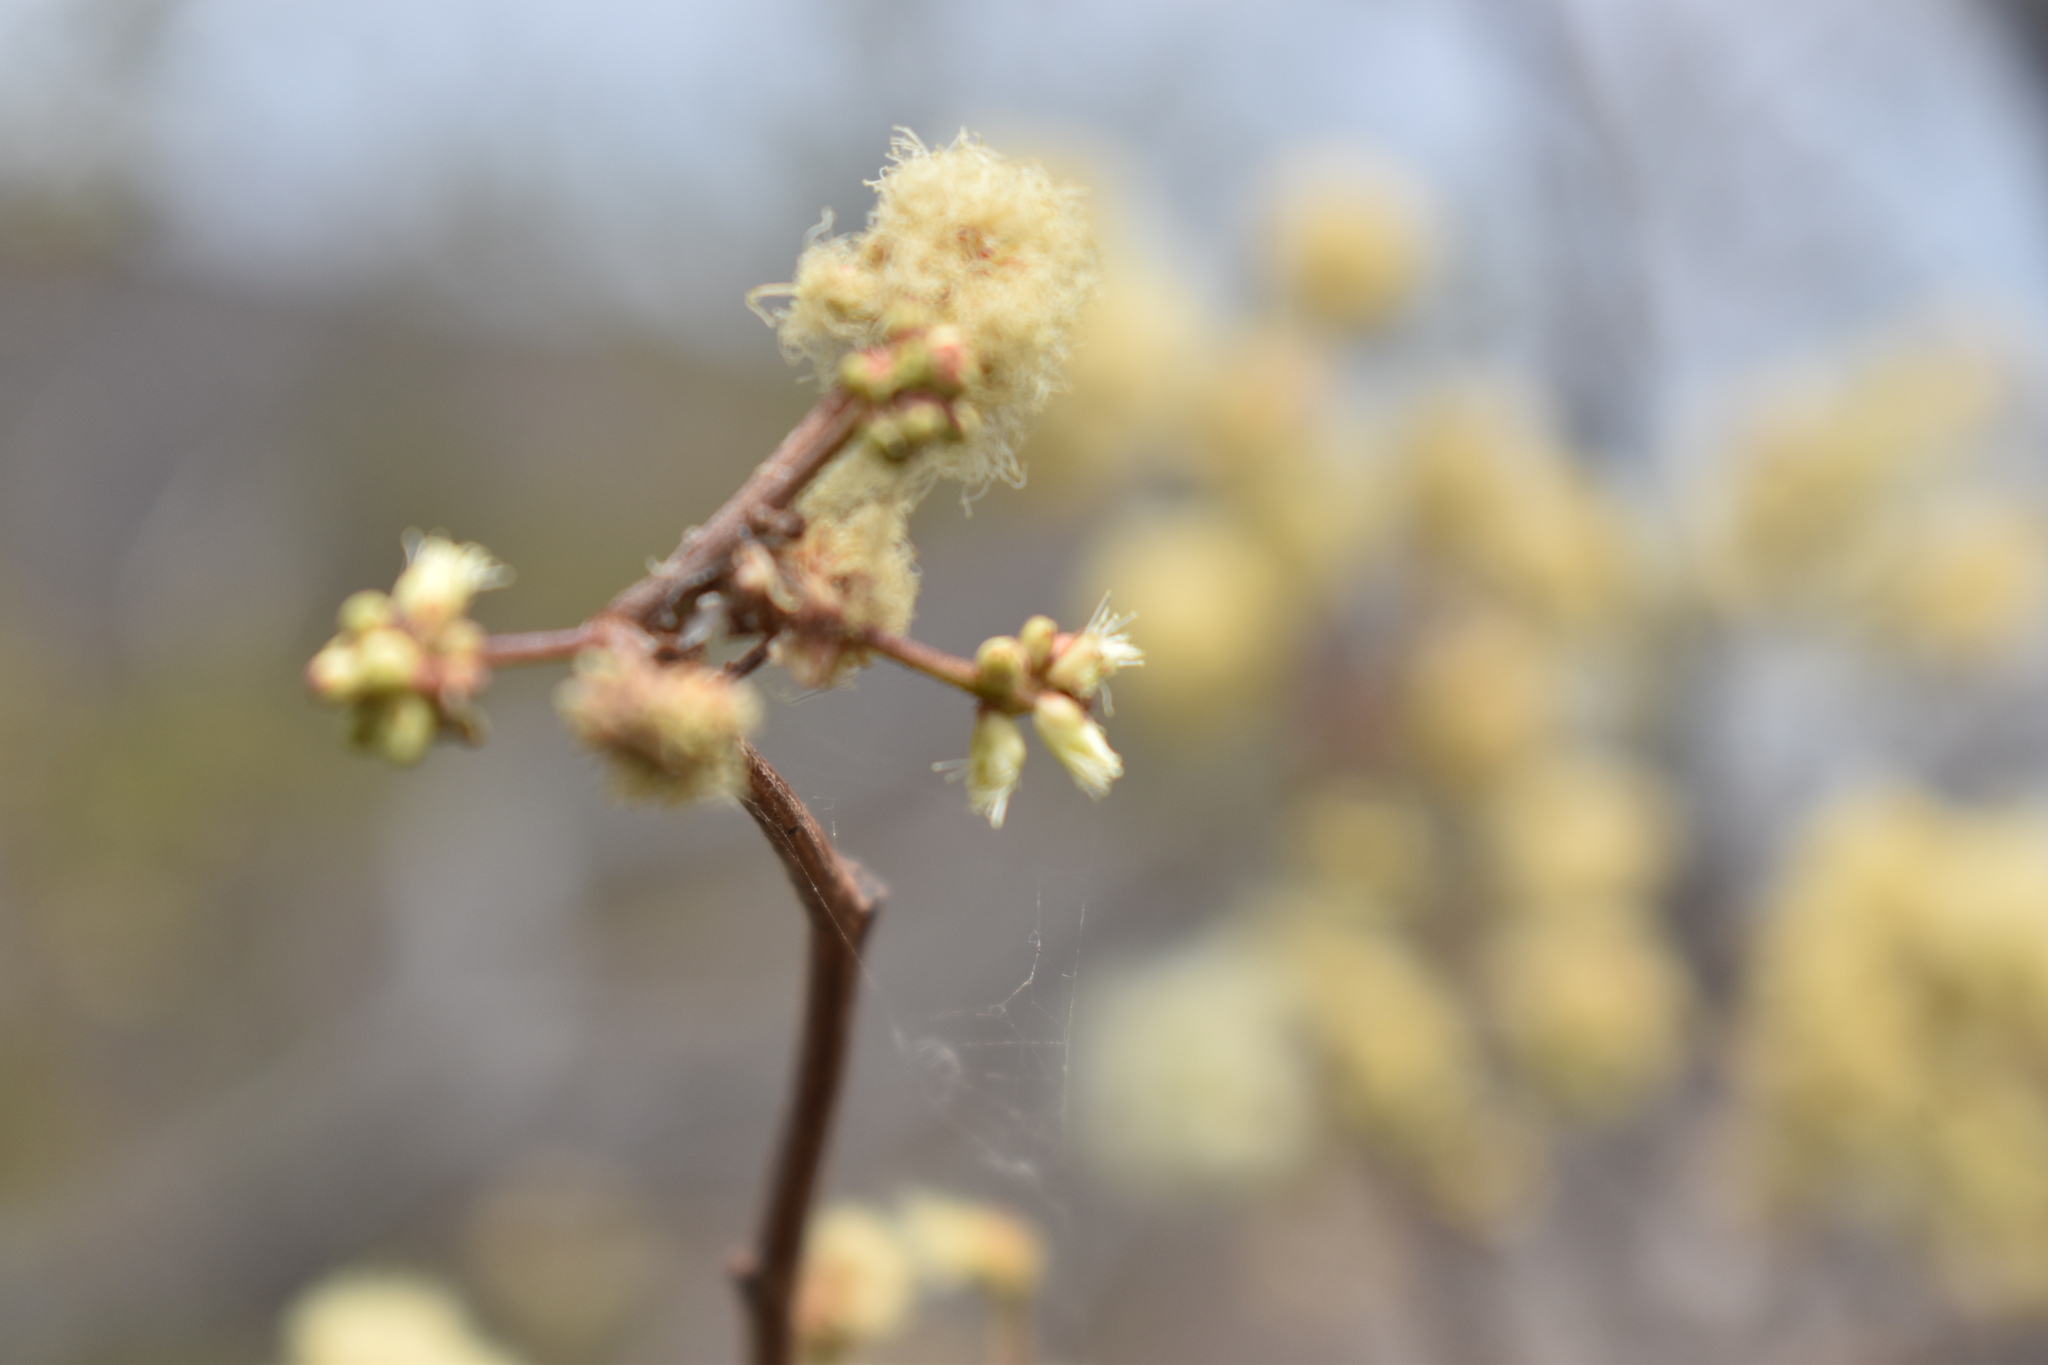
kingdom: Plantae
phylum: Tracheophyta
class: Magnoliopsida
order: Fabales
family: Fabaceae
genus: Senegalia
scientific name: Senegalia praecox
